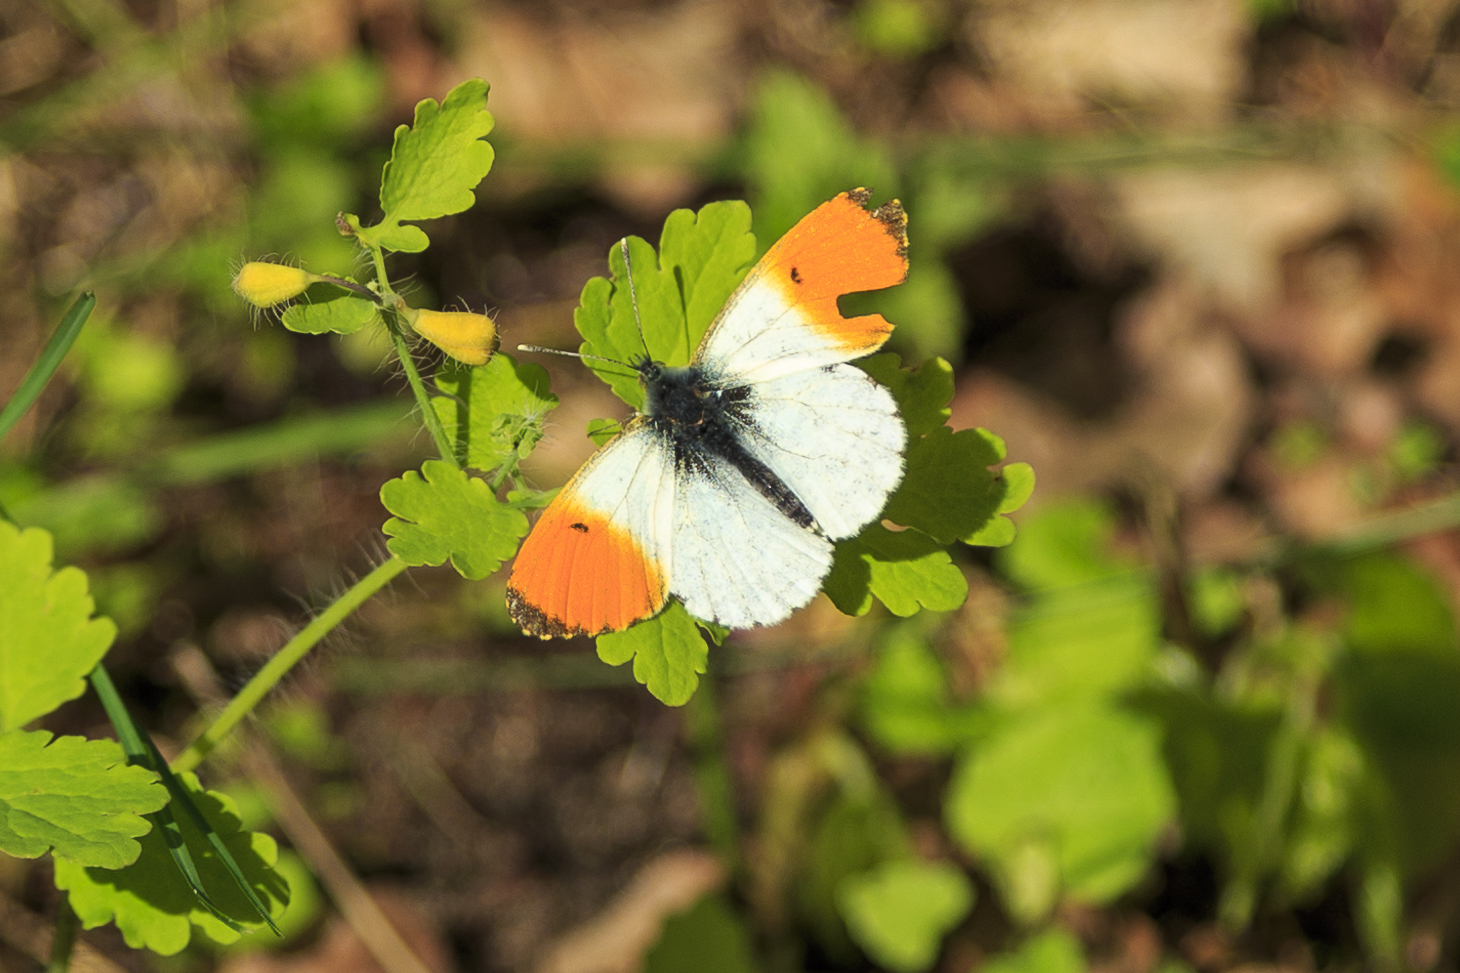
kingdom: Animalia
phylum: Arthropoda
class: Insecta
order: Lepidoptera
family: Pieridae
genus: Anthocharis
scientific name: Anthocharis cardamines
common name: Orange-tip
